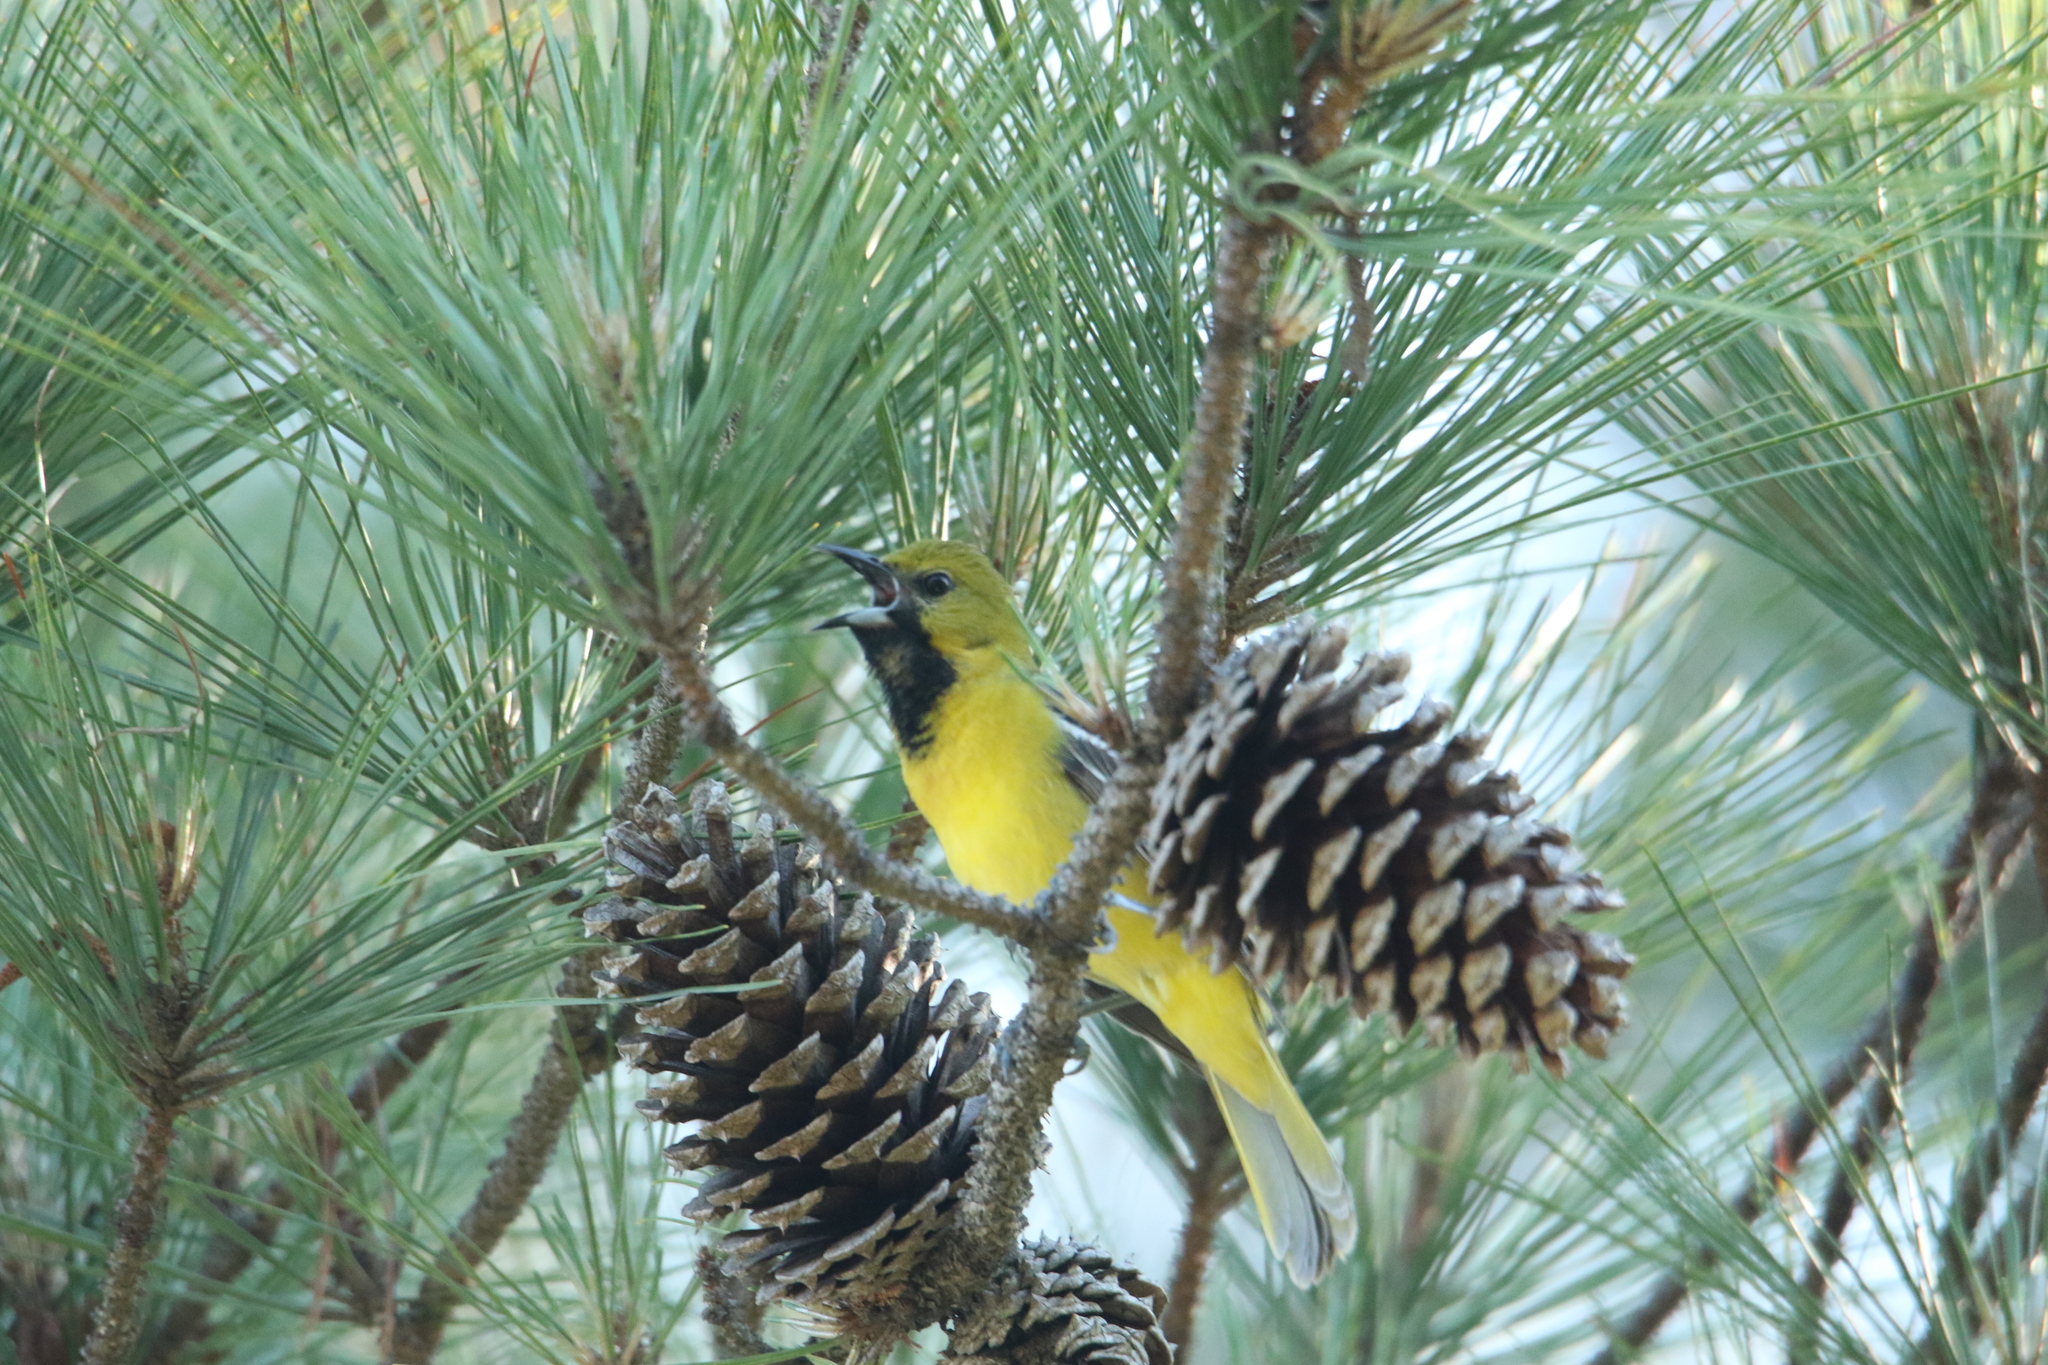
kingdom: Animalia
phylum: Chordata
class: Aves
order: Passeriformes
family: Icteridae
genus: Icterus
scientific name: Icterus spurius
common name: Orchard oriole
